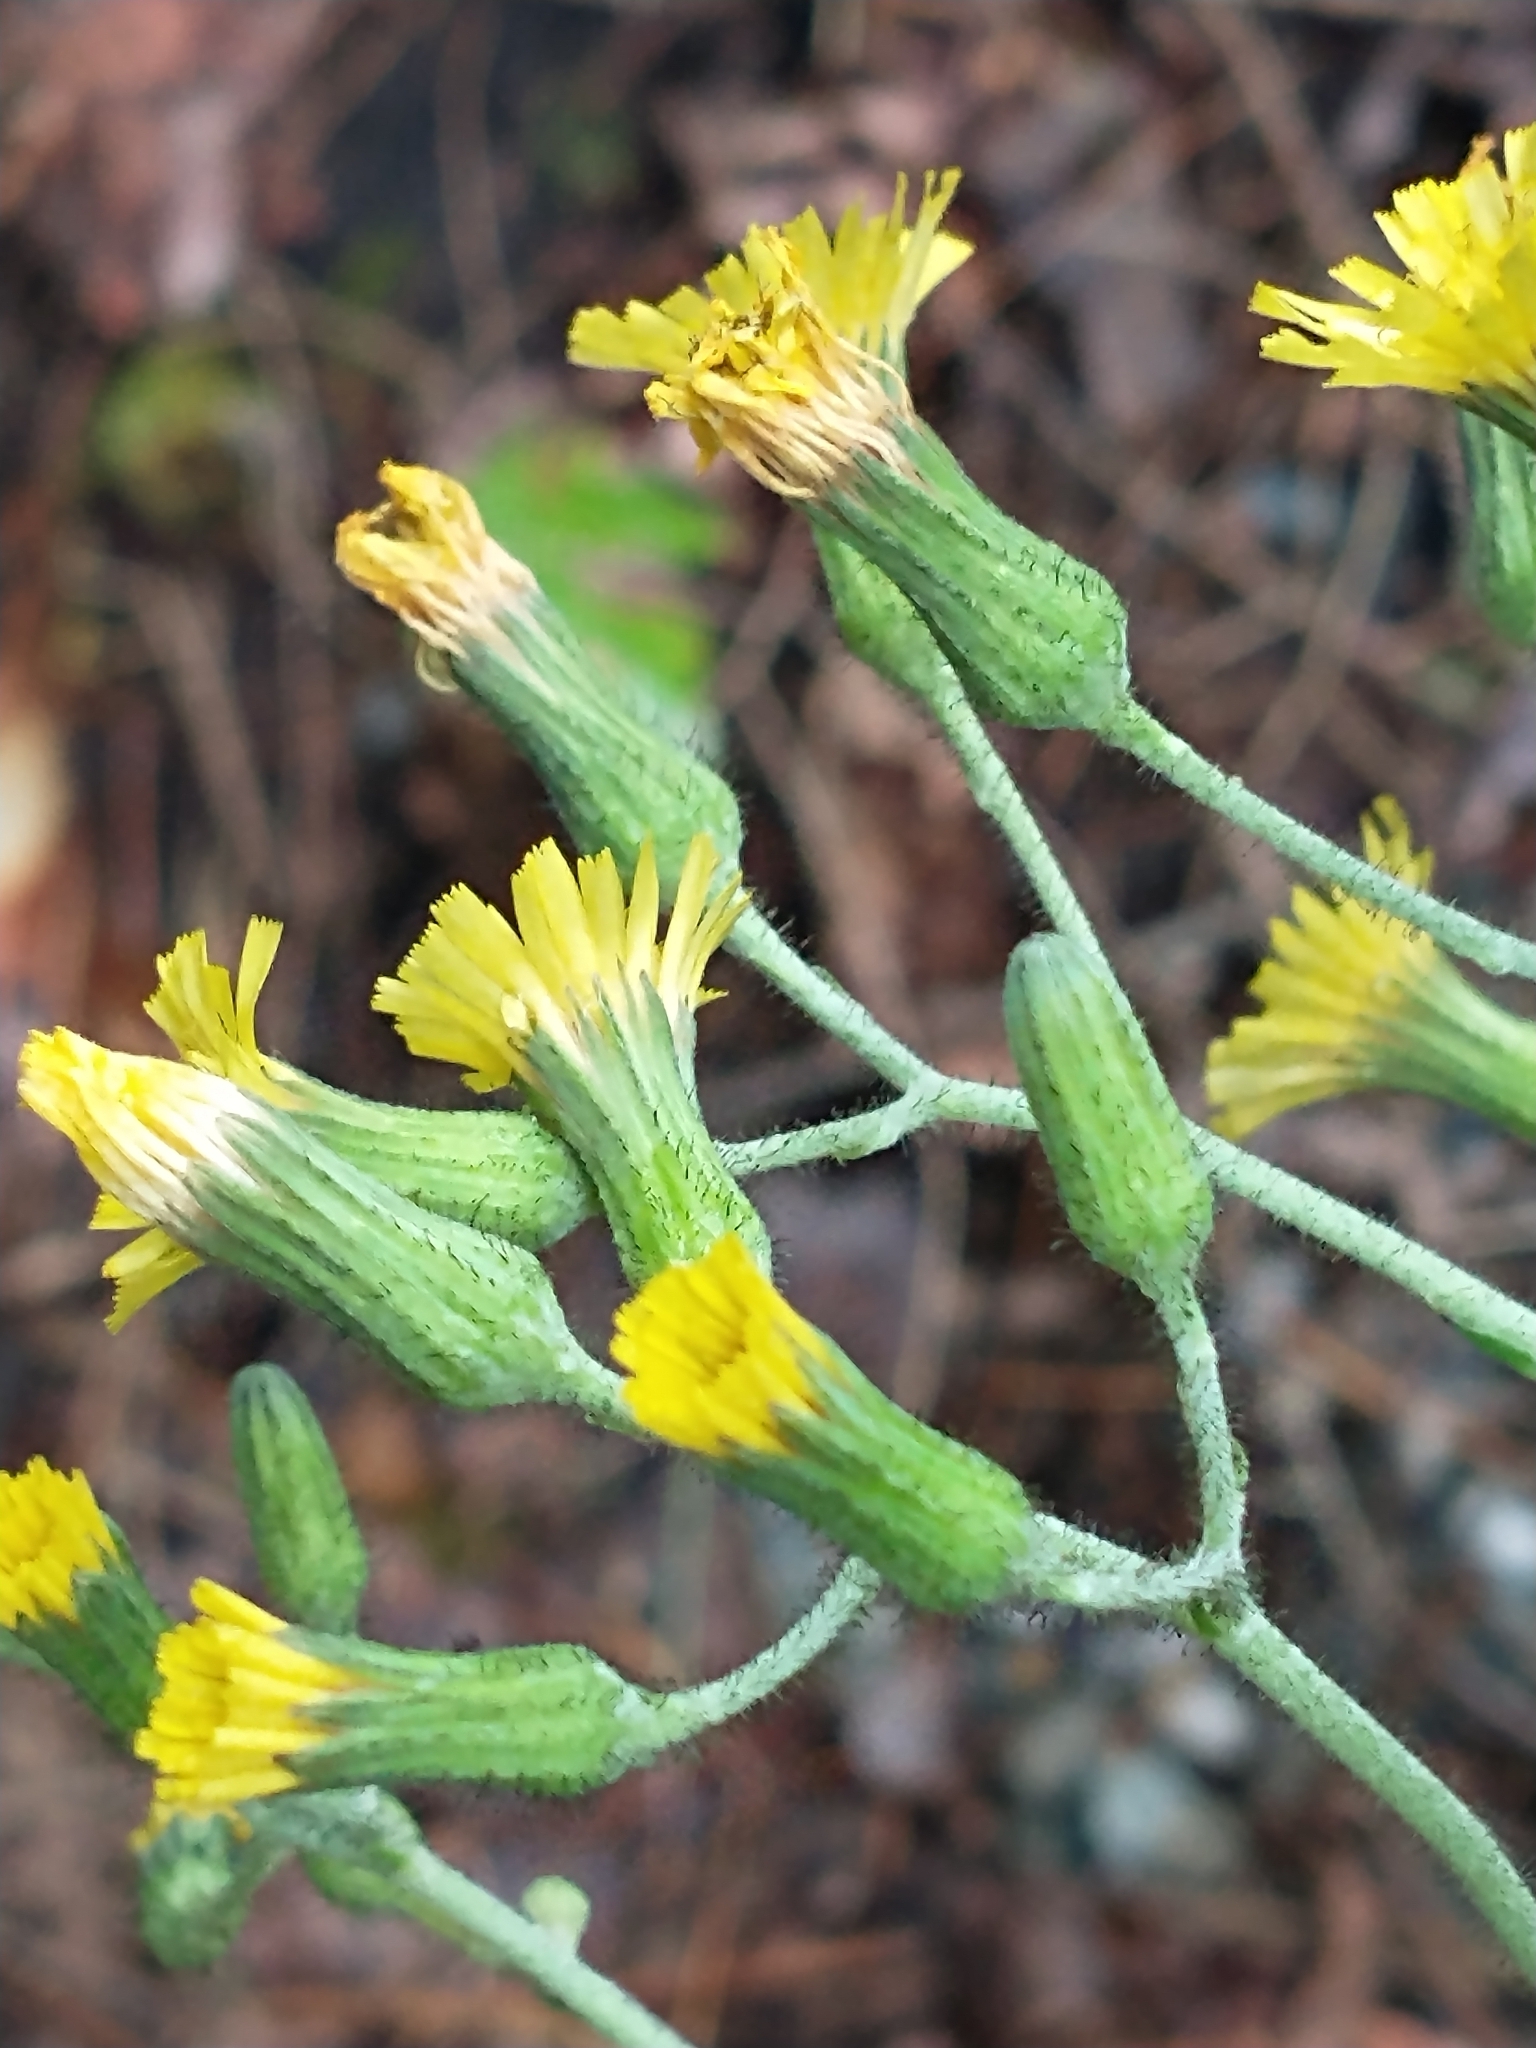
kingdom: Plantae
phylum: Tracheophyta
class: Magnoliopsida
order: Asterales
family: Asteraceae
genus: Hieracium
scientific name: Hieracium scabrum
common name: Rough hawkweed
